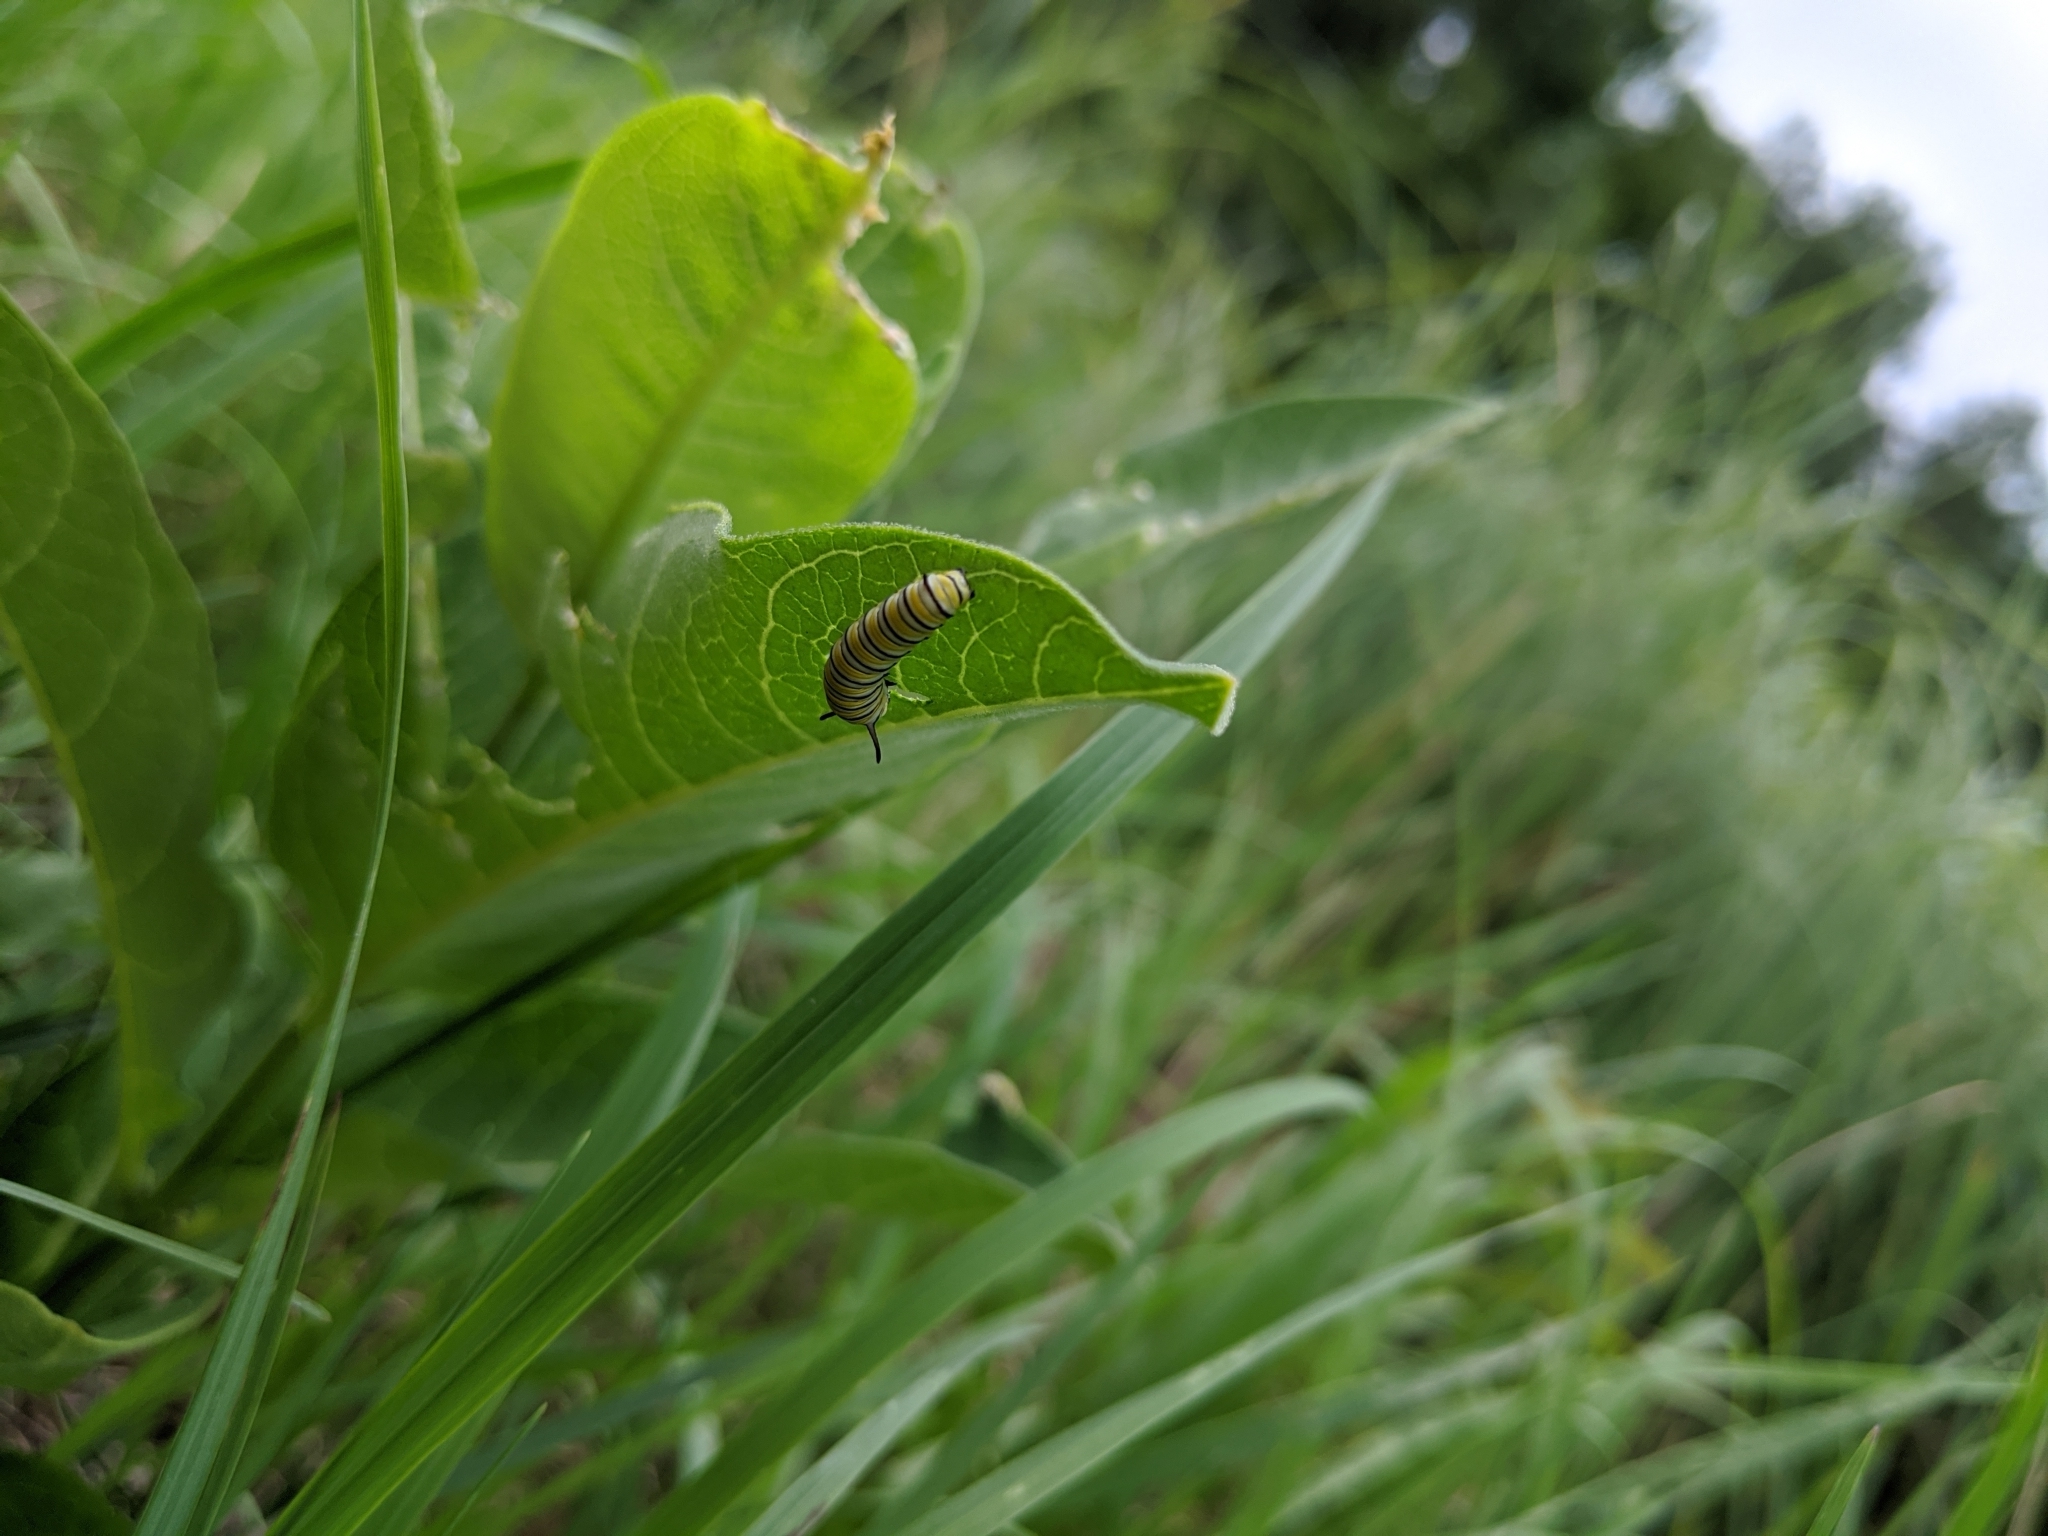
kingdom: Animalia
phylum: Arthropoda
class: Insecta
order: Lepidoptera
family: Nymphalidae
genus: Danaus
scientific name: Danaus plexippus
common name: Monarch
